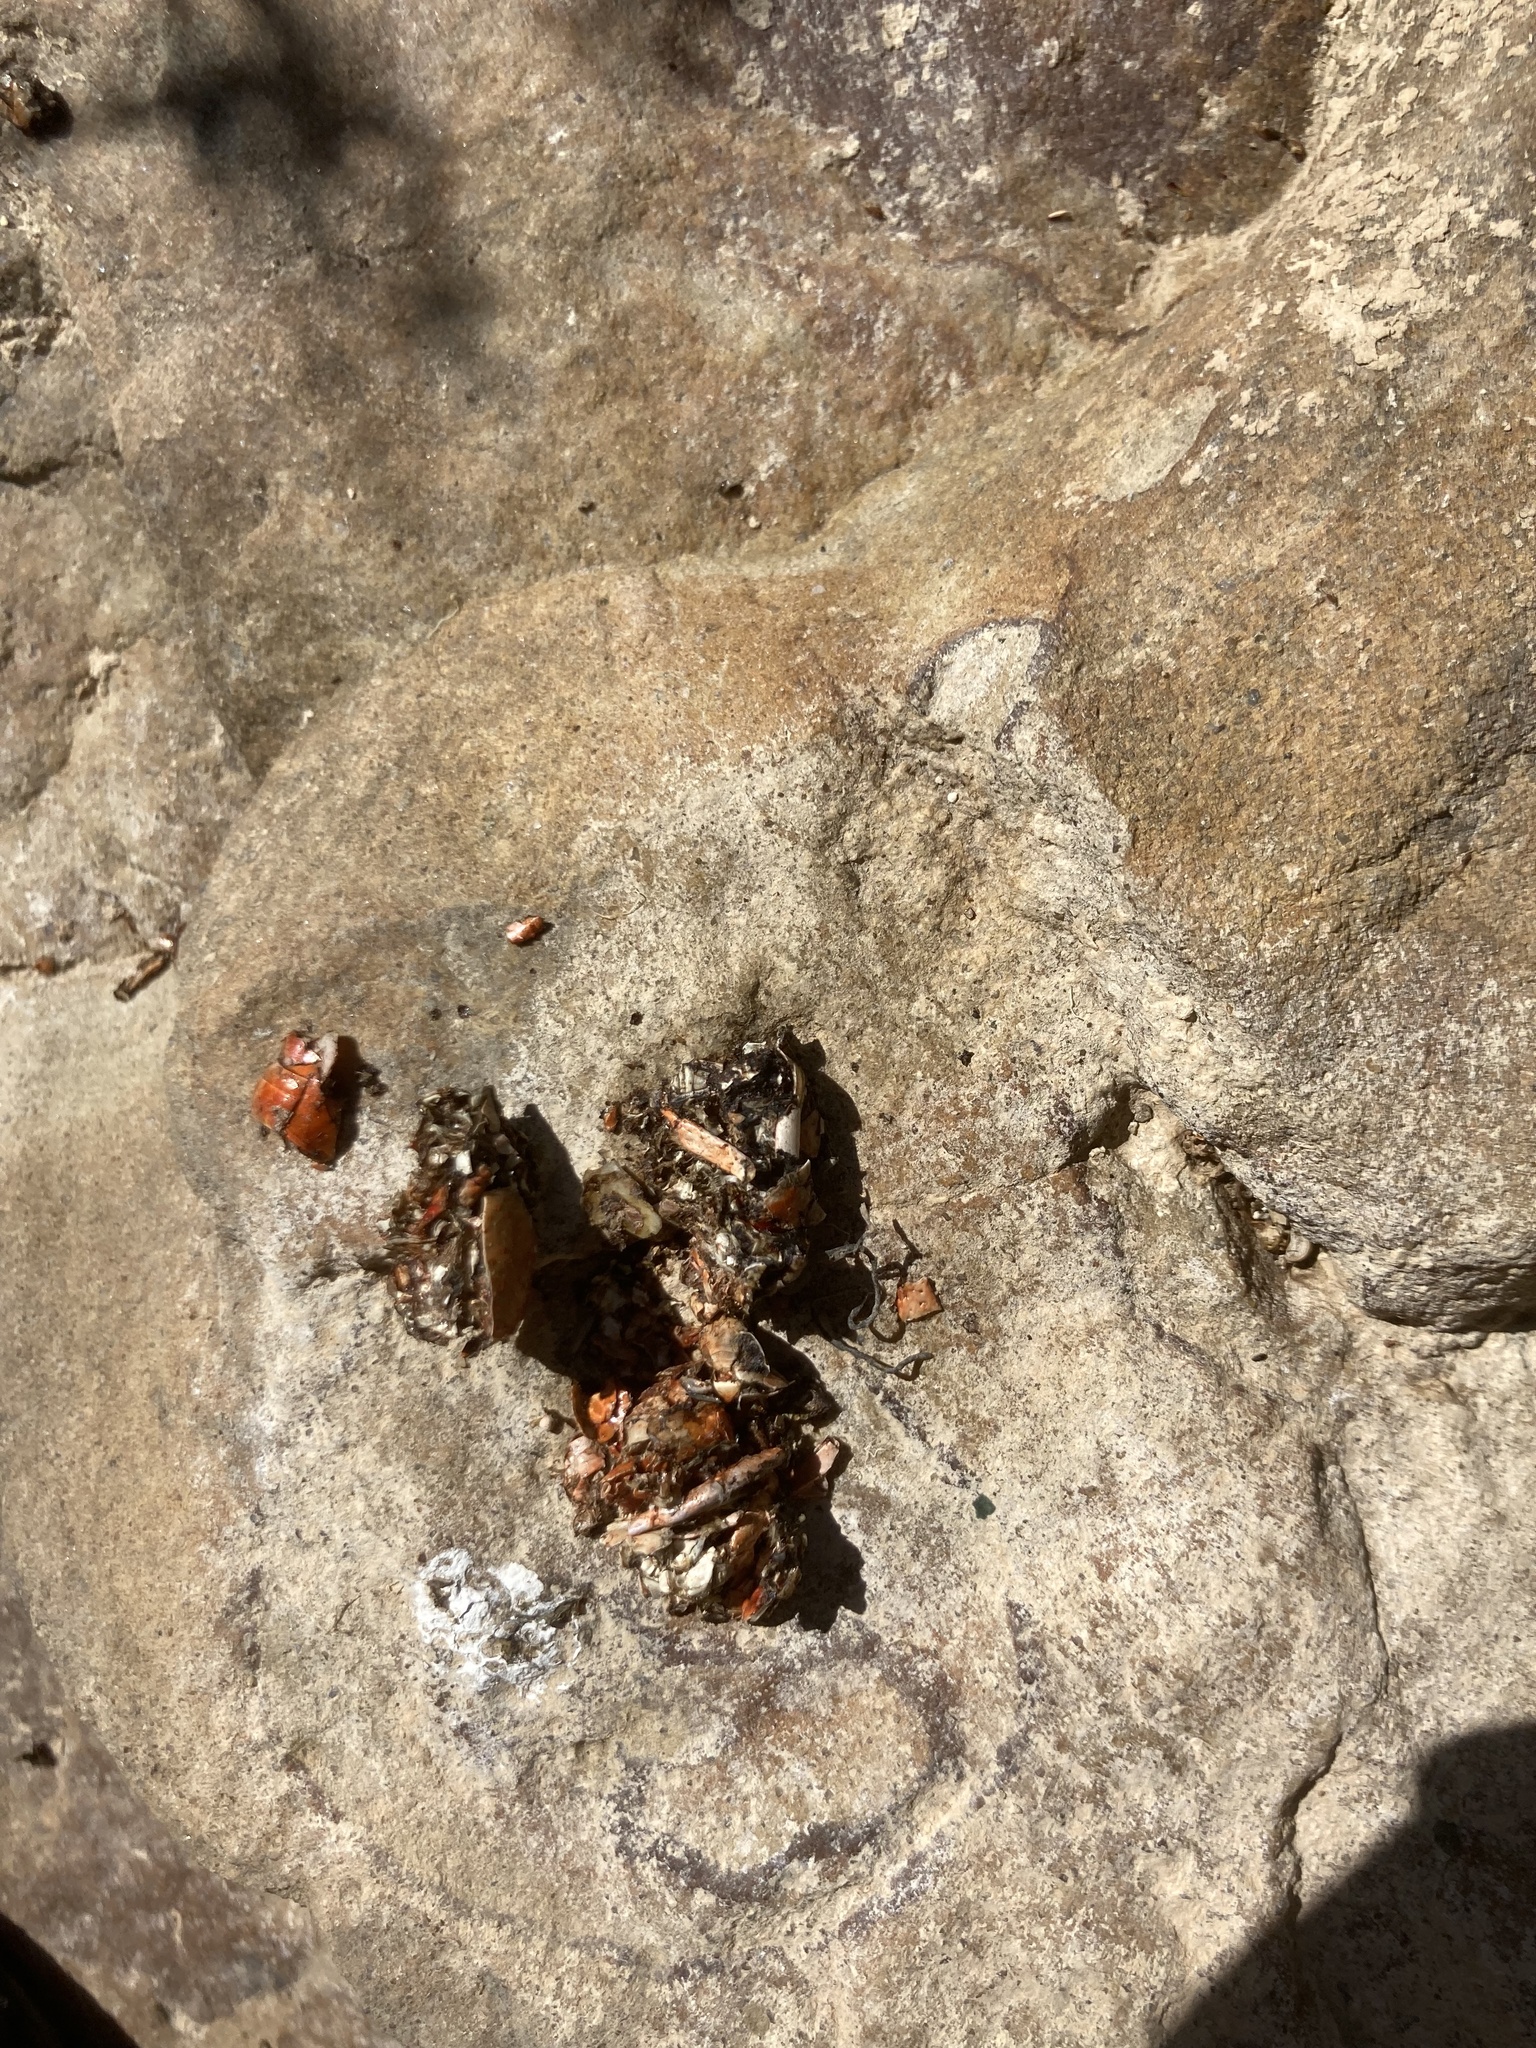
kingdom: Animalia
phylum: Chordata
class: Mammalia
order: Carnivora
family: Mustelidae
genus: Lutra
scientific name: Lutra lutra
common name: European otter
